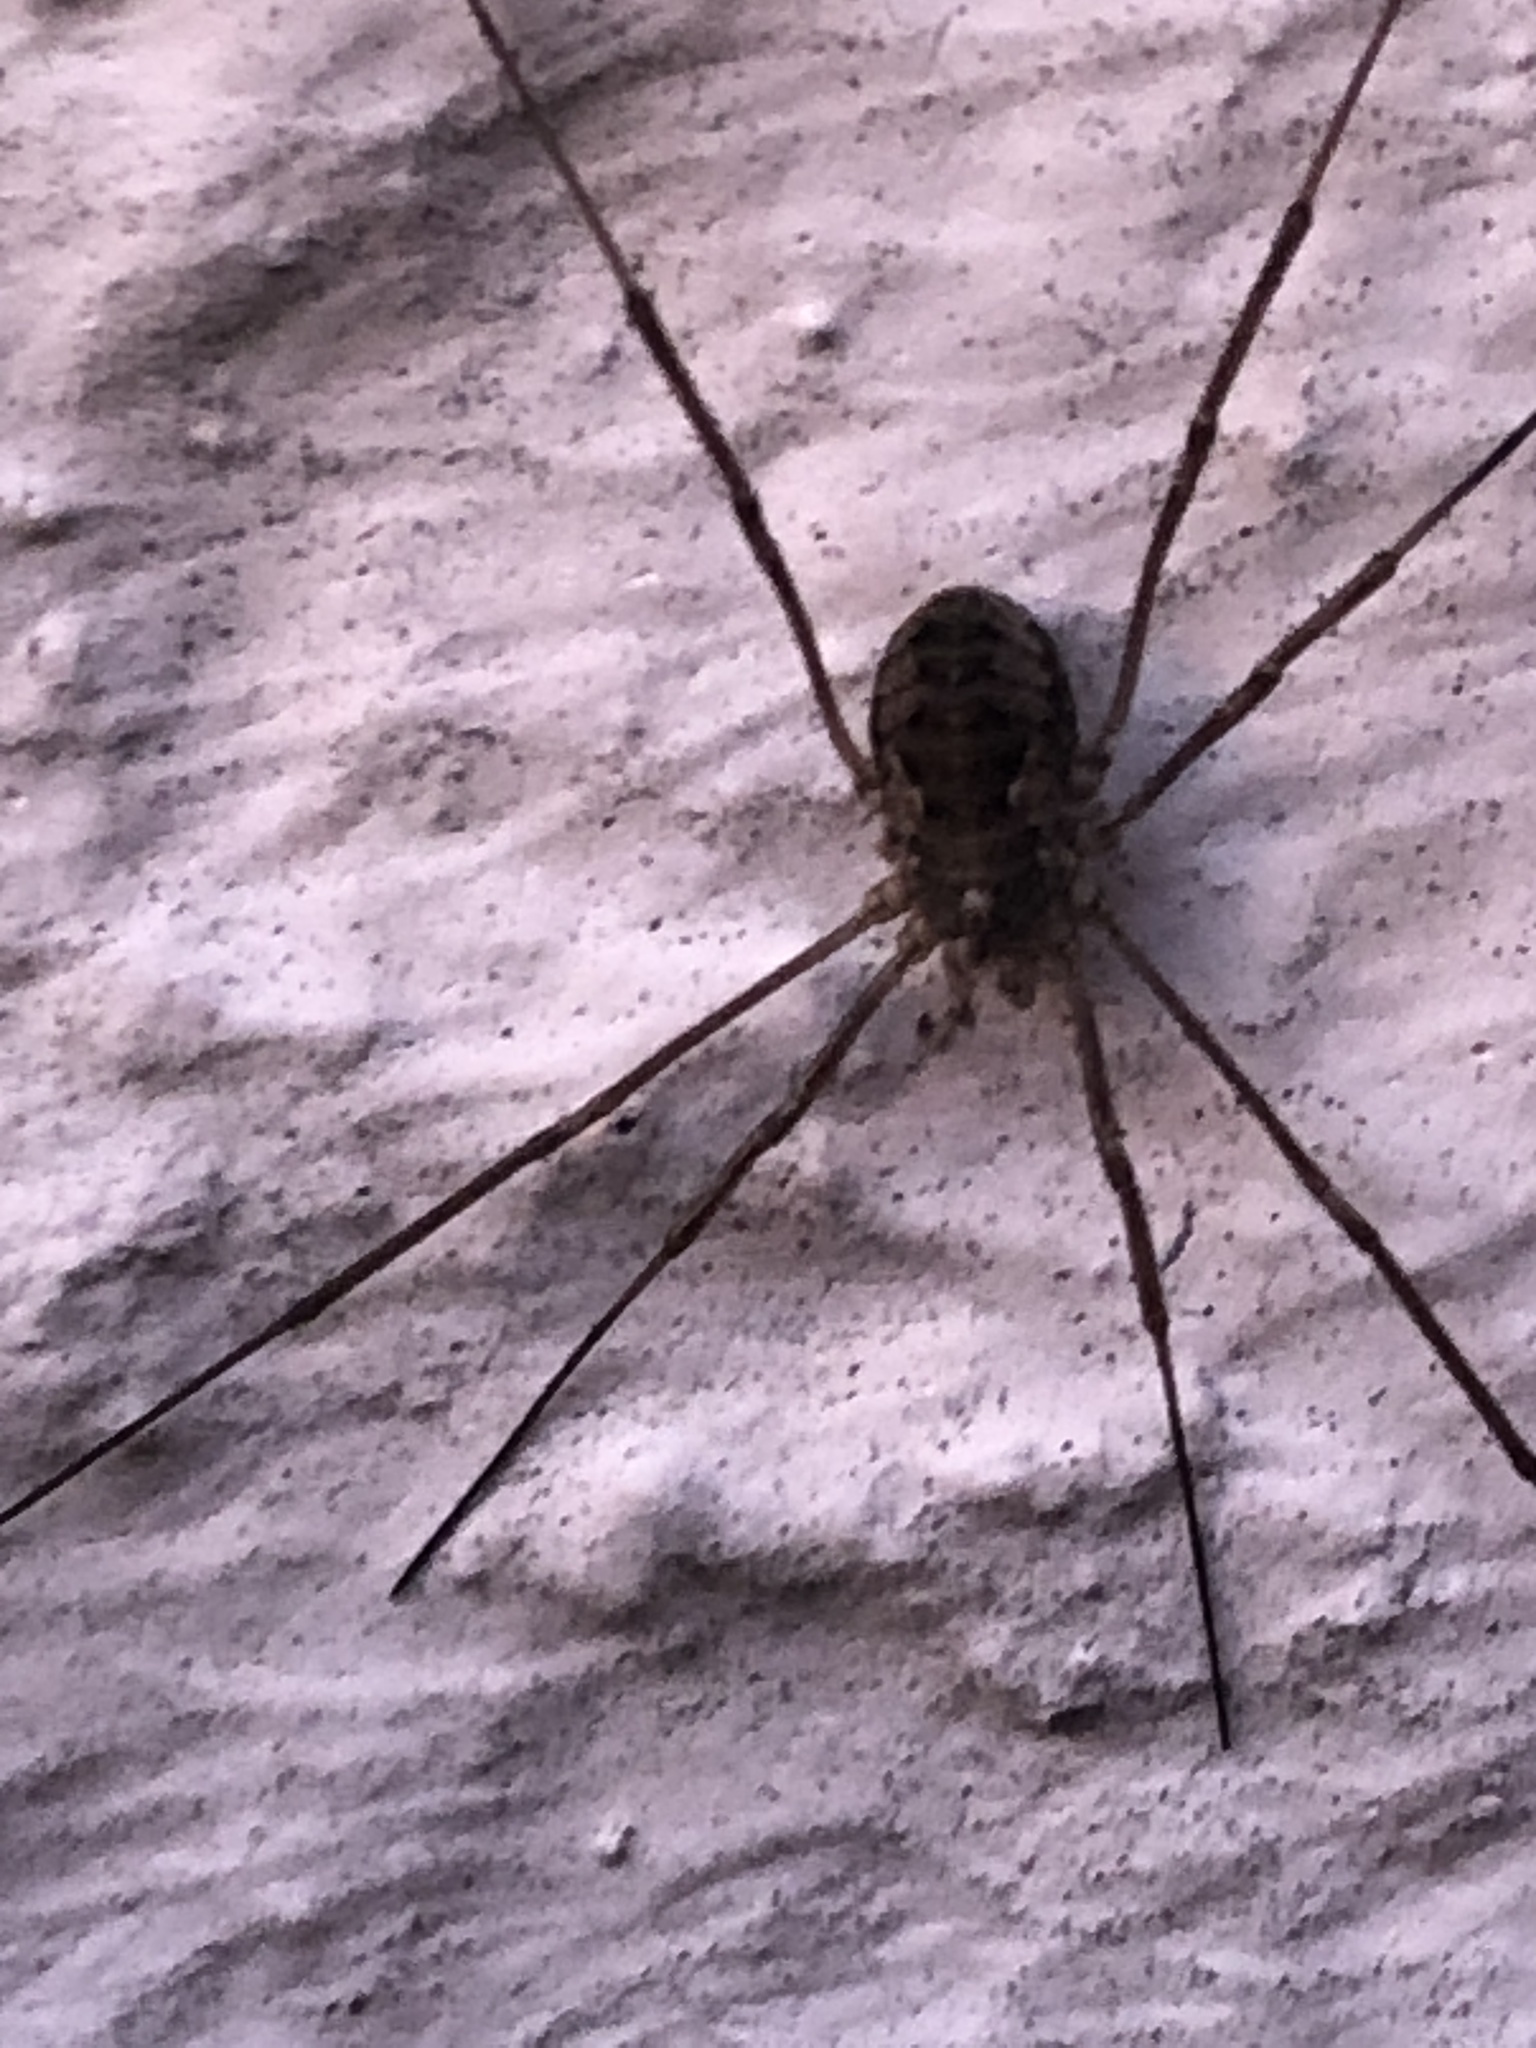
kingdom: Animalia
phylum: Arthropoda
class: Arachnida
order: Opiliones
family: Phalangiidae
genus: Phalangium
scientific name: Phalangium opilio
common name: Daddy longleg
